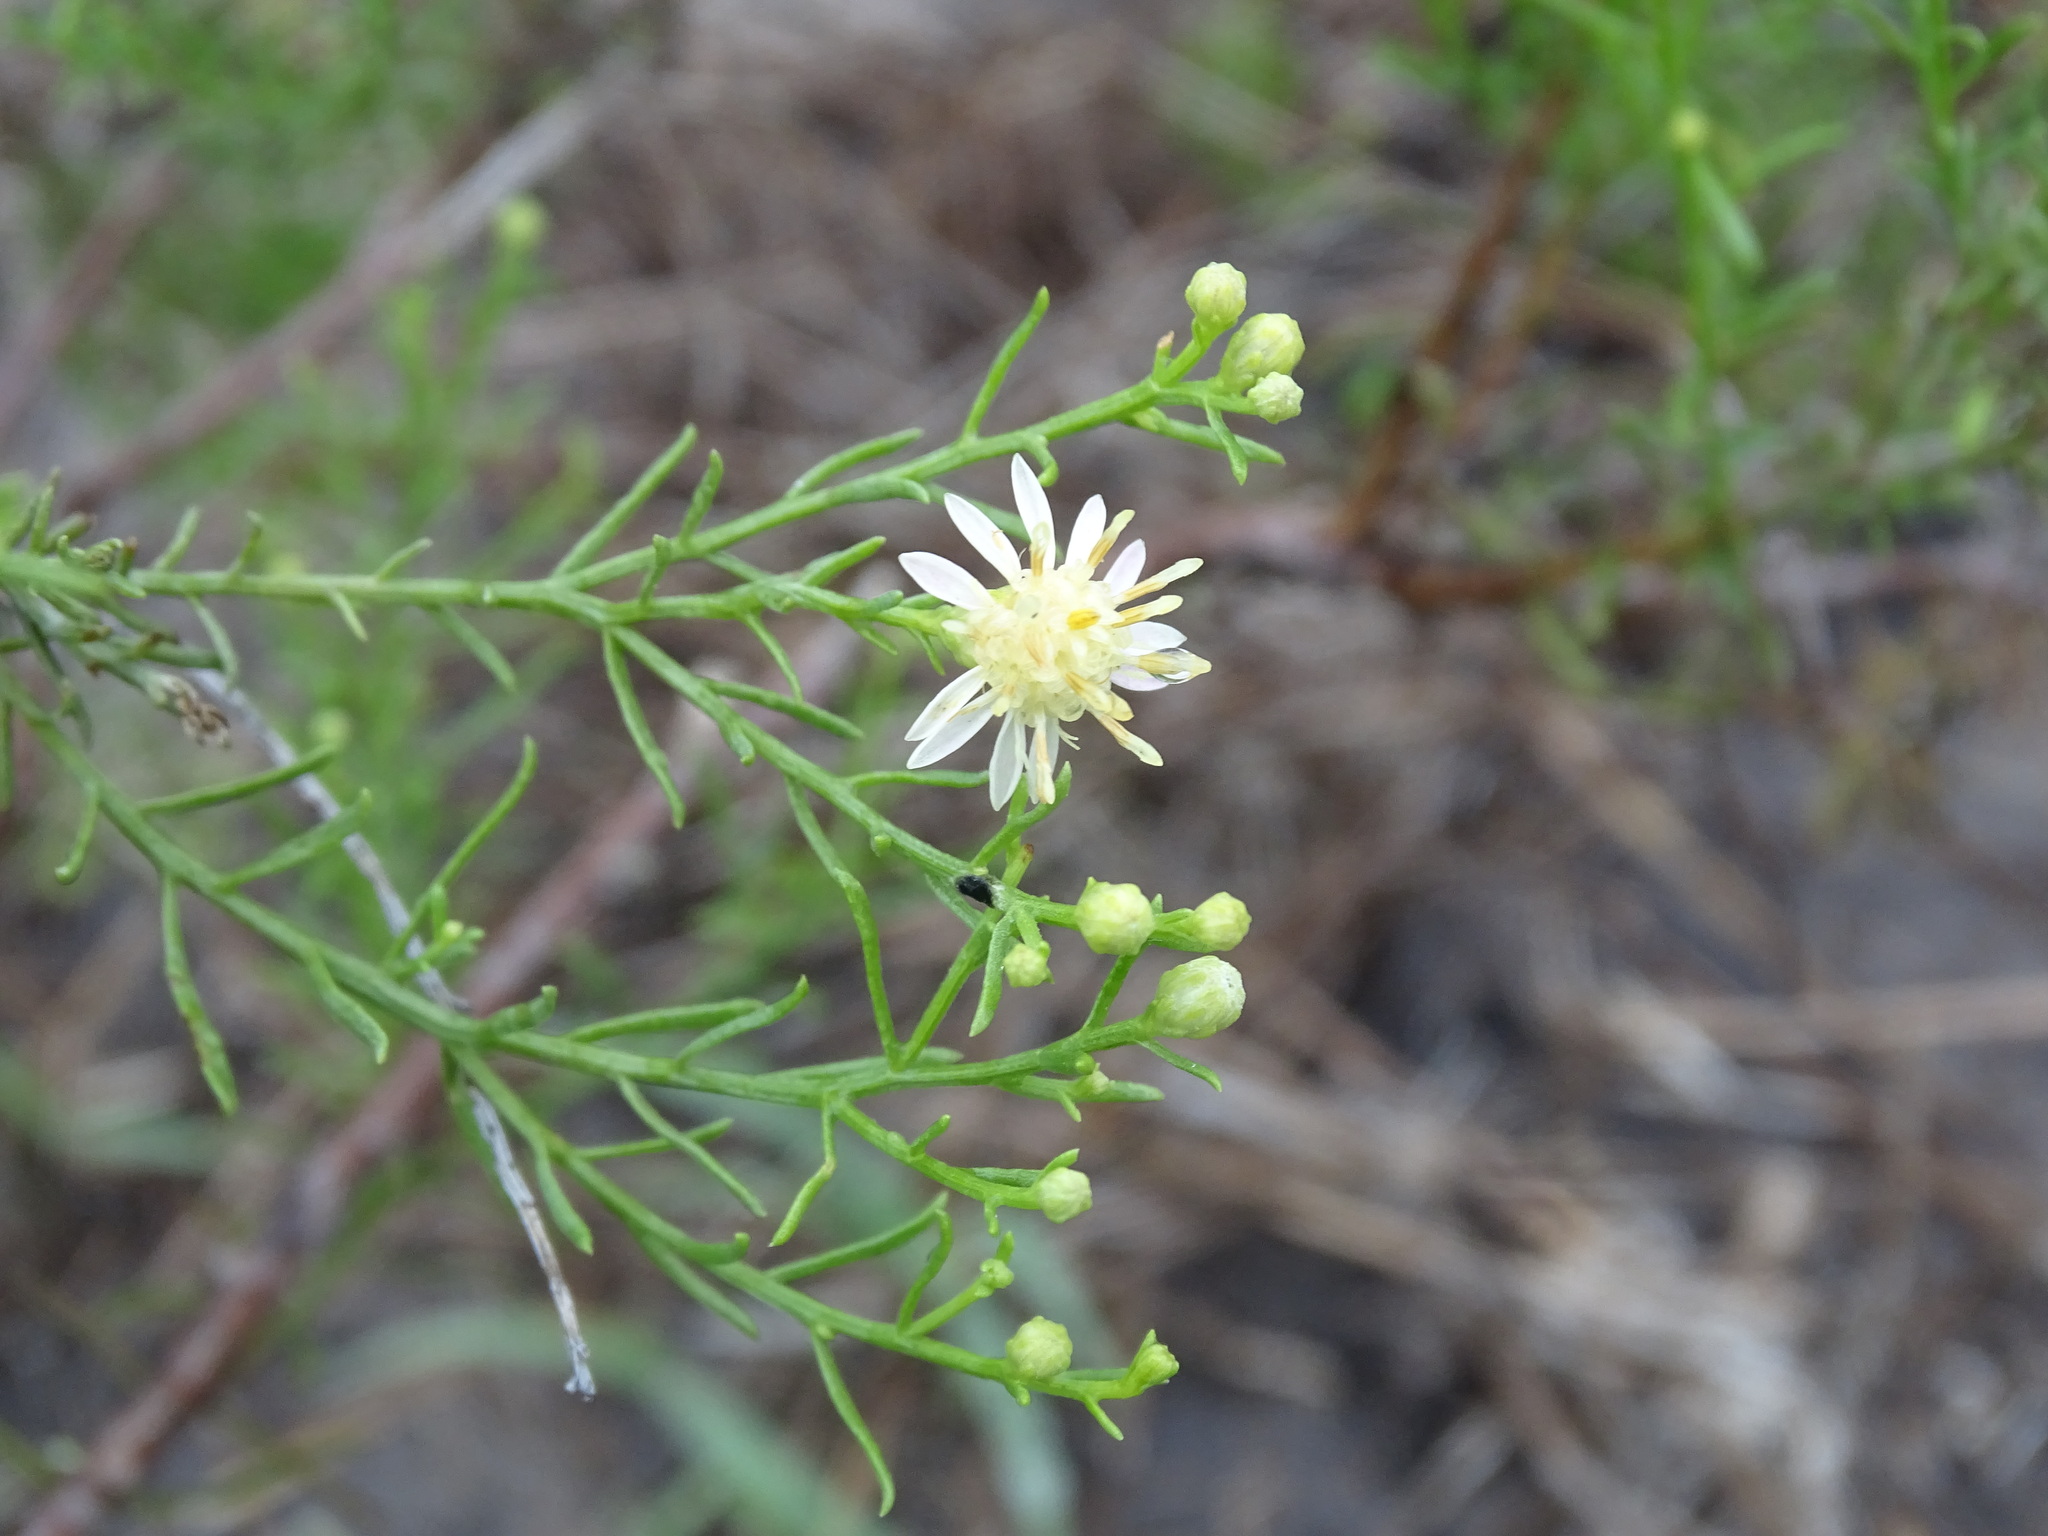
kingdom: Plantae
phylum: Tracheophyta
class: Magnoliopsida
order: Asterales
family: Asteraceae
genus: Medranoa
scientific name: Medranoa palmeri
